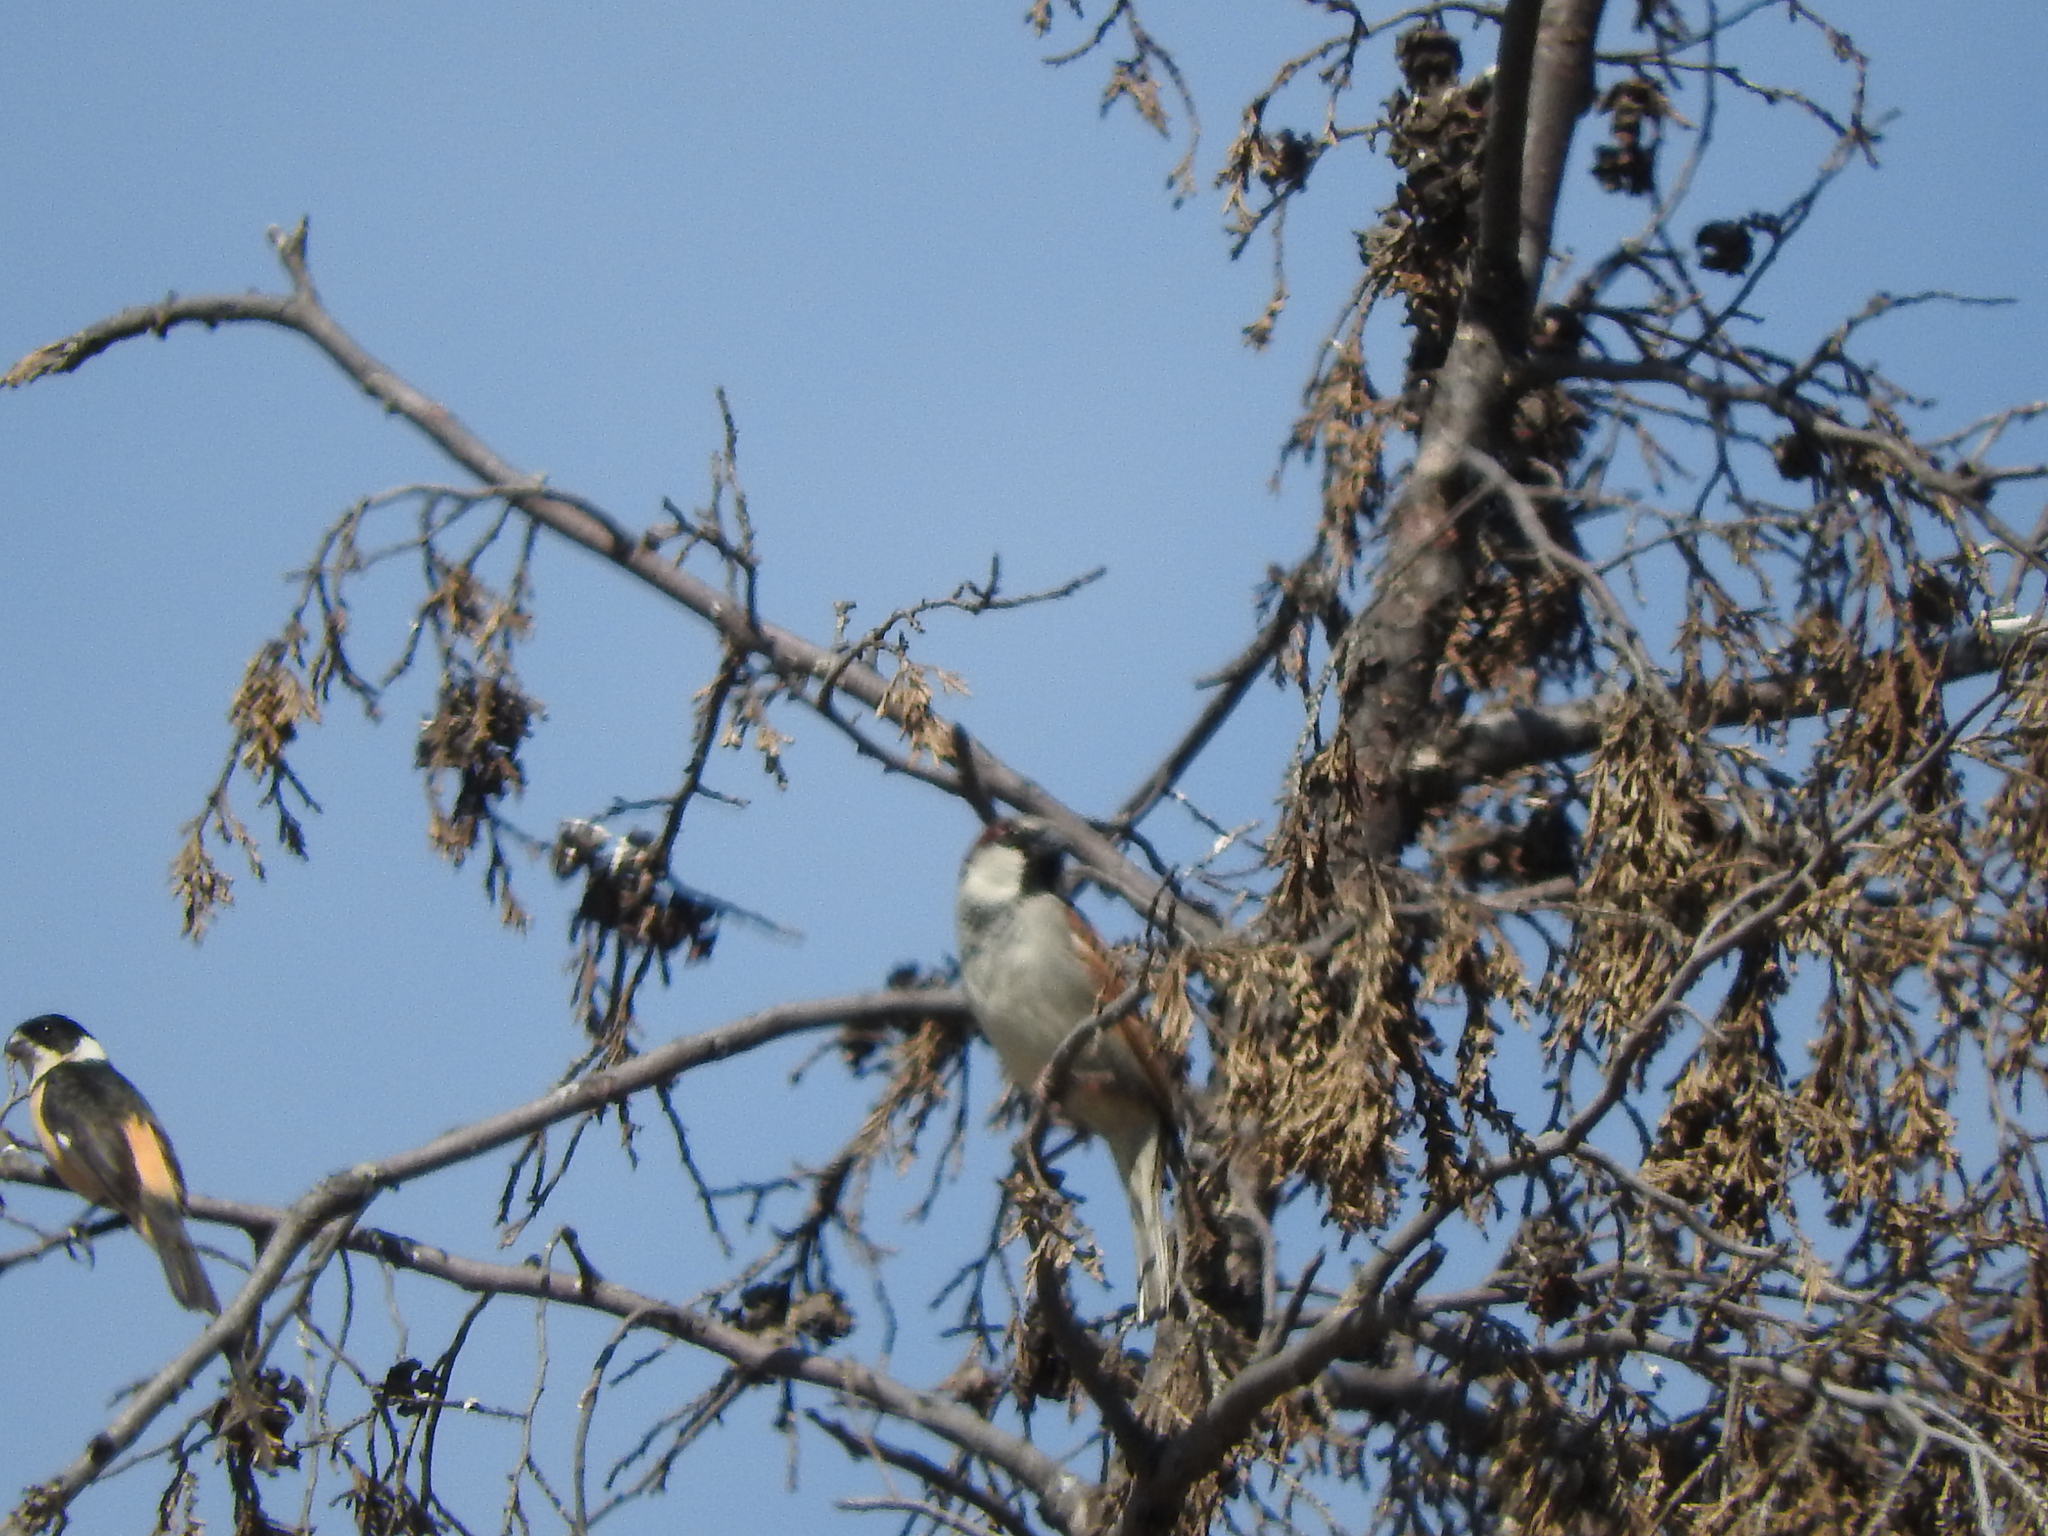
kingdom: Animalia
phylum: Chordata
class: Aves
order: Passeriformes
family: Thraupidae
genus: Sporophila
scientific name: Sporophila torqueola
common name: White-collared seedeater
